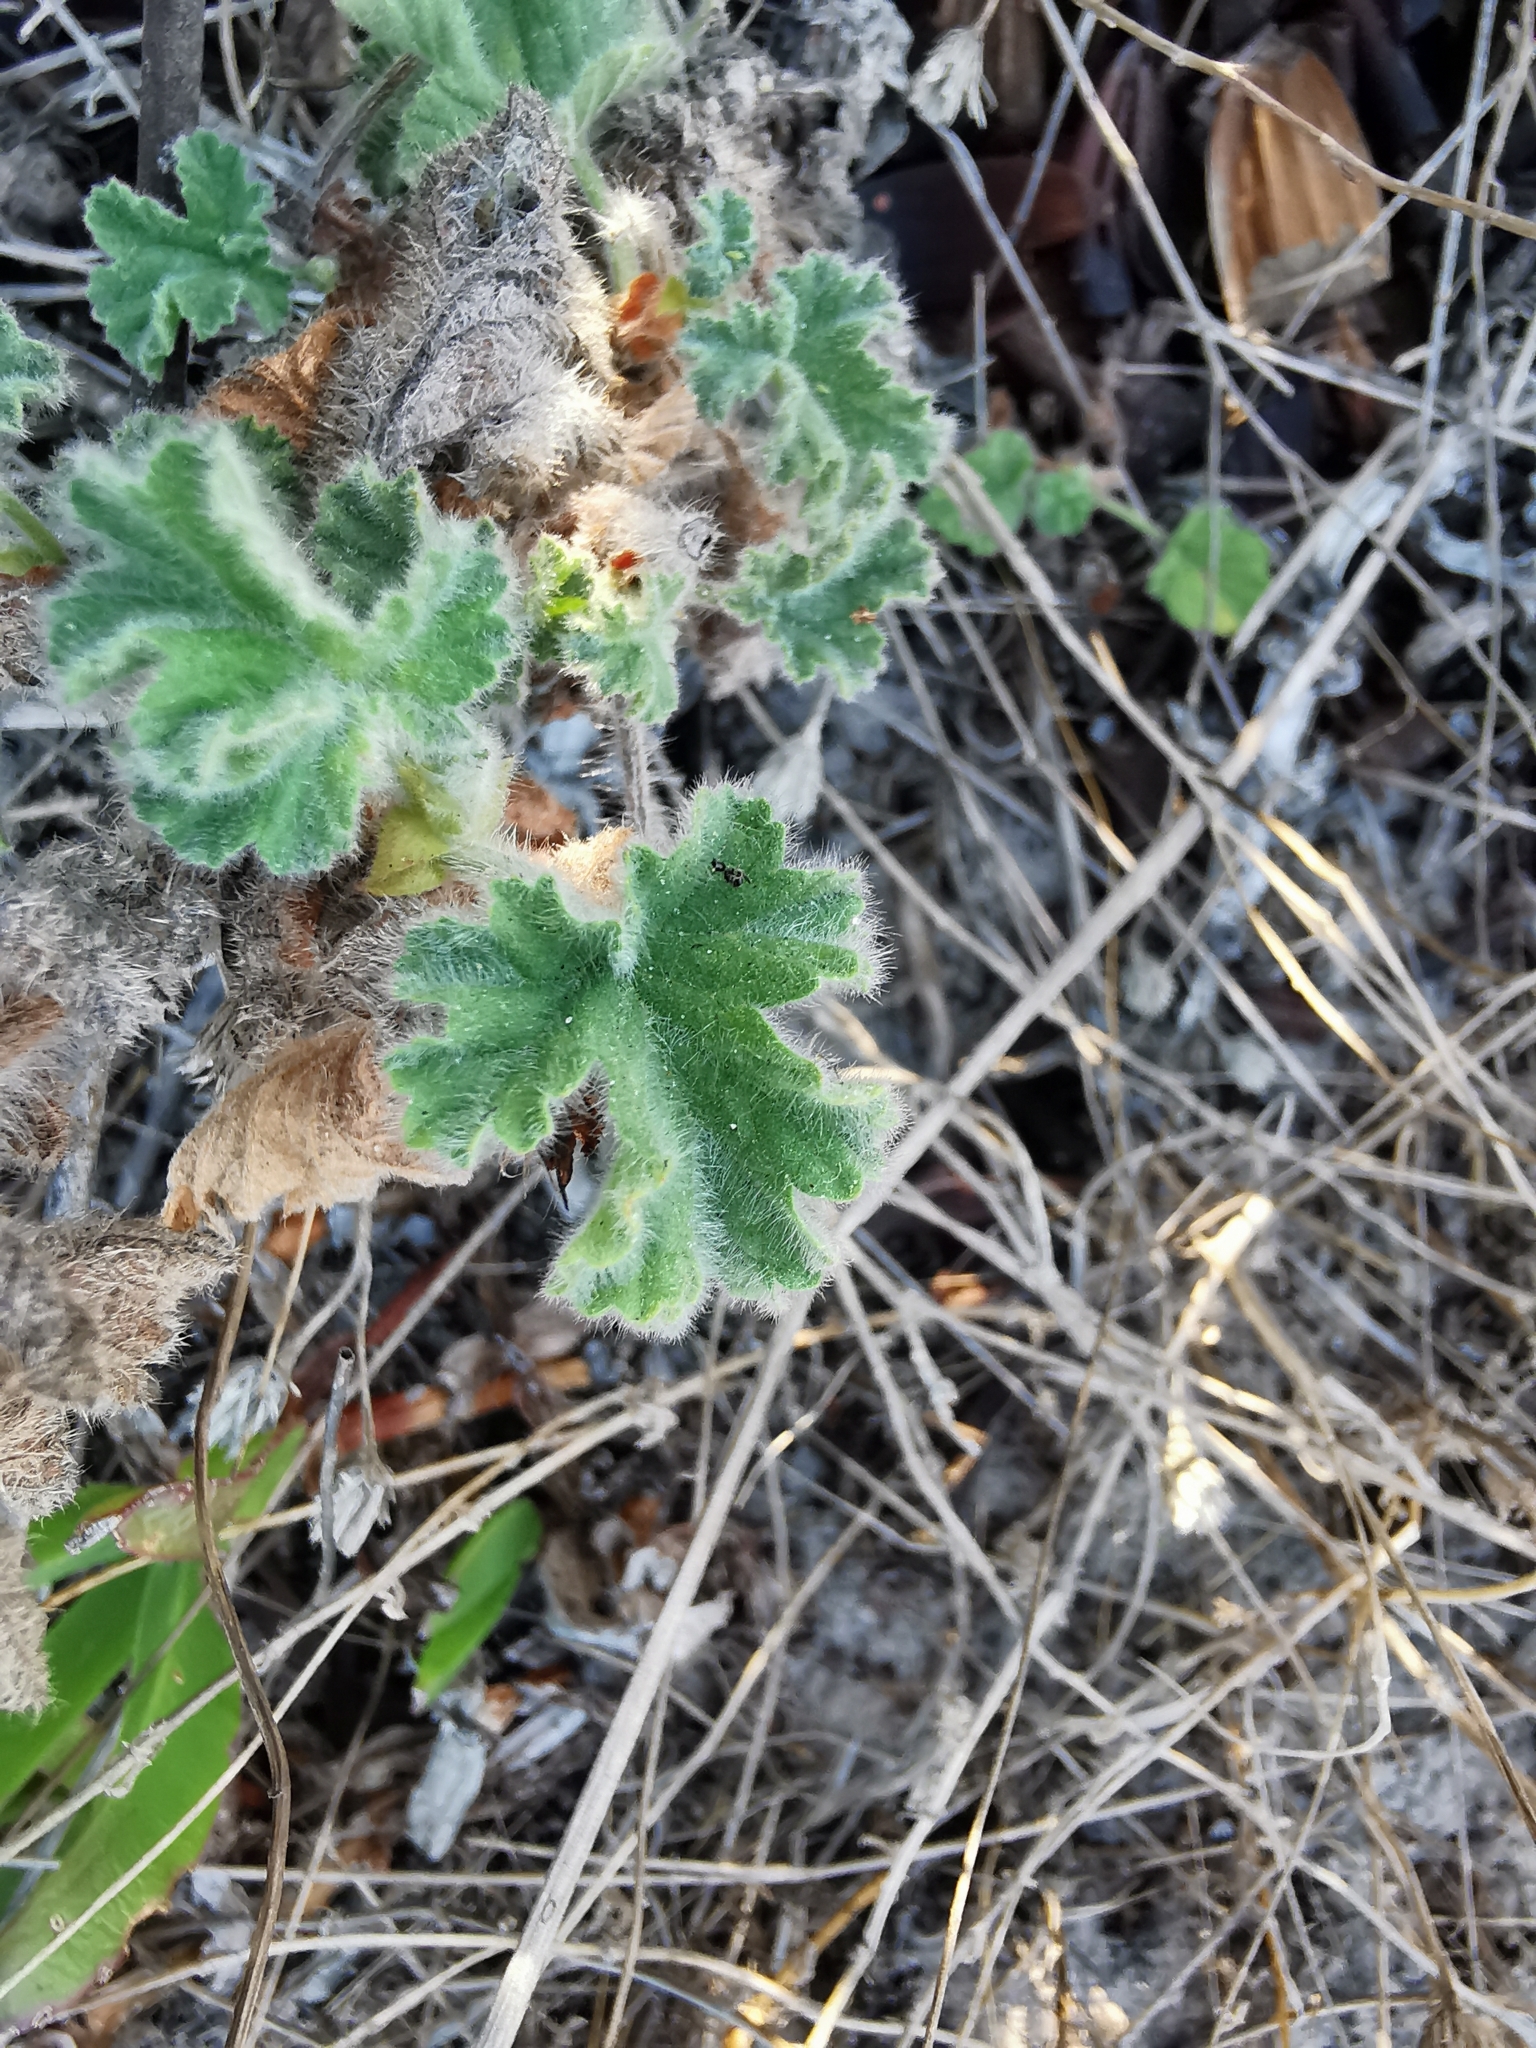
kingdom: Plantae
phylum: Tracheophyta
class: Magnoliopsida
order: Geraniales
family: Geraniaceae
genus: Pelargonium
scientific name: Pelargonium capitatum
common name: Rose scented geranium
